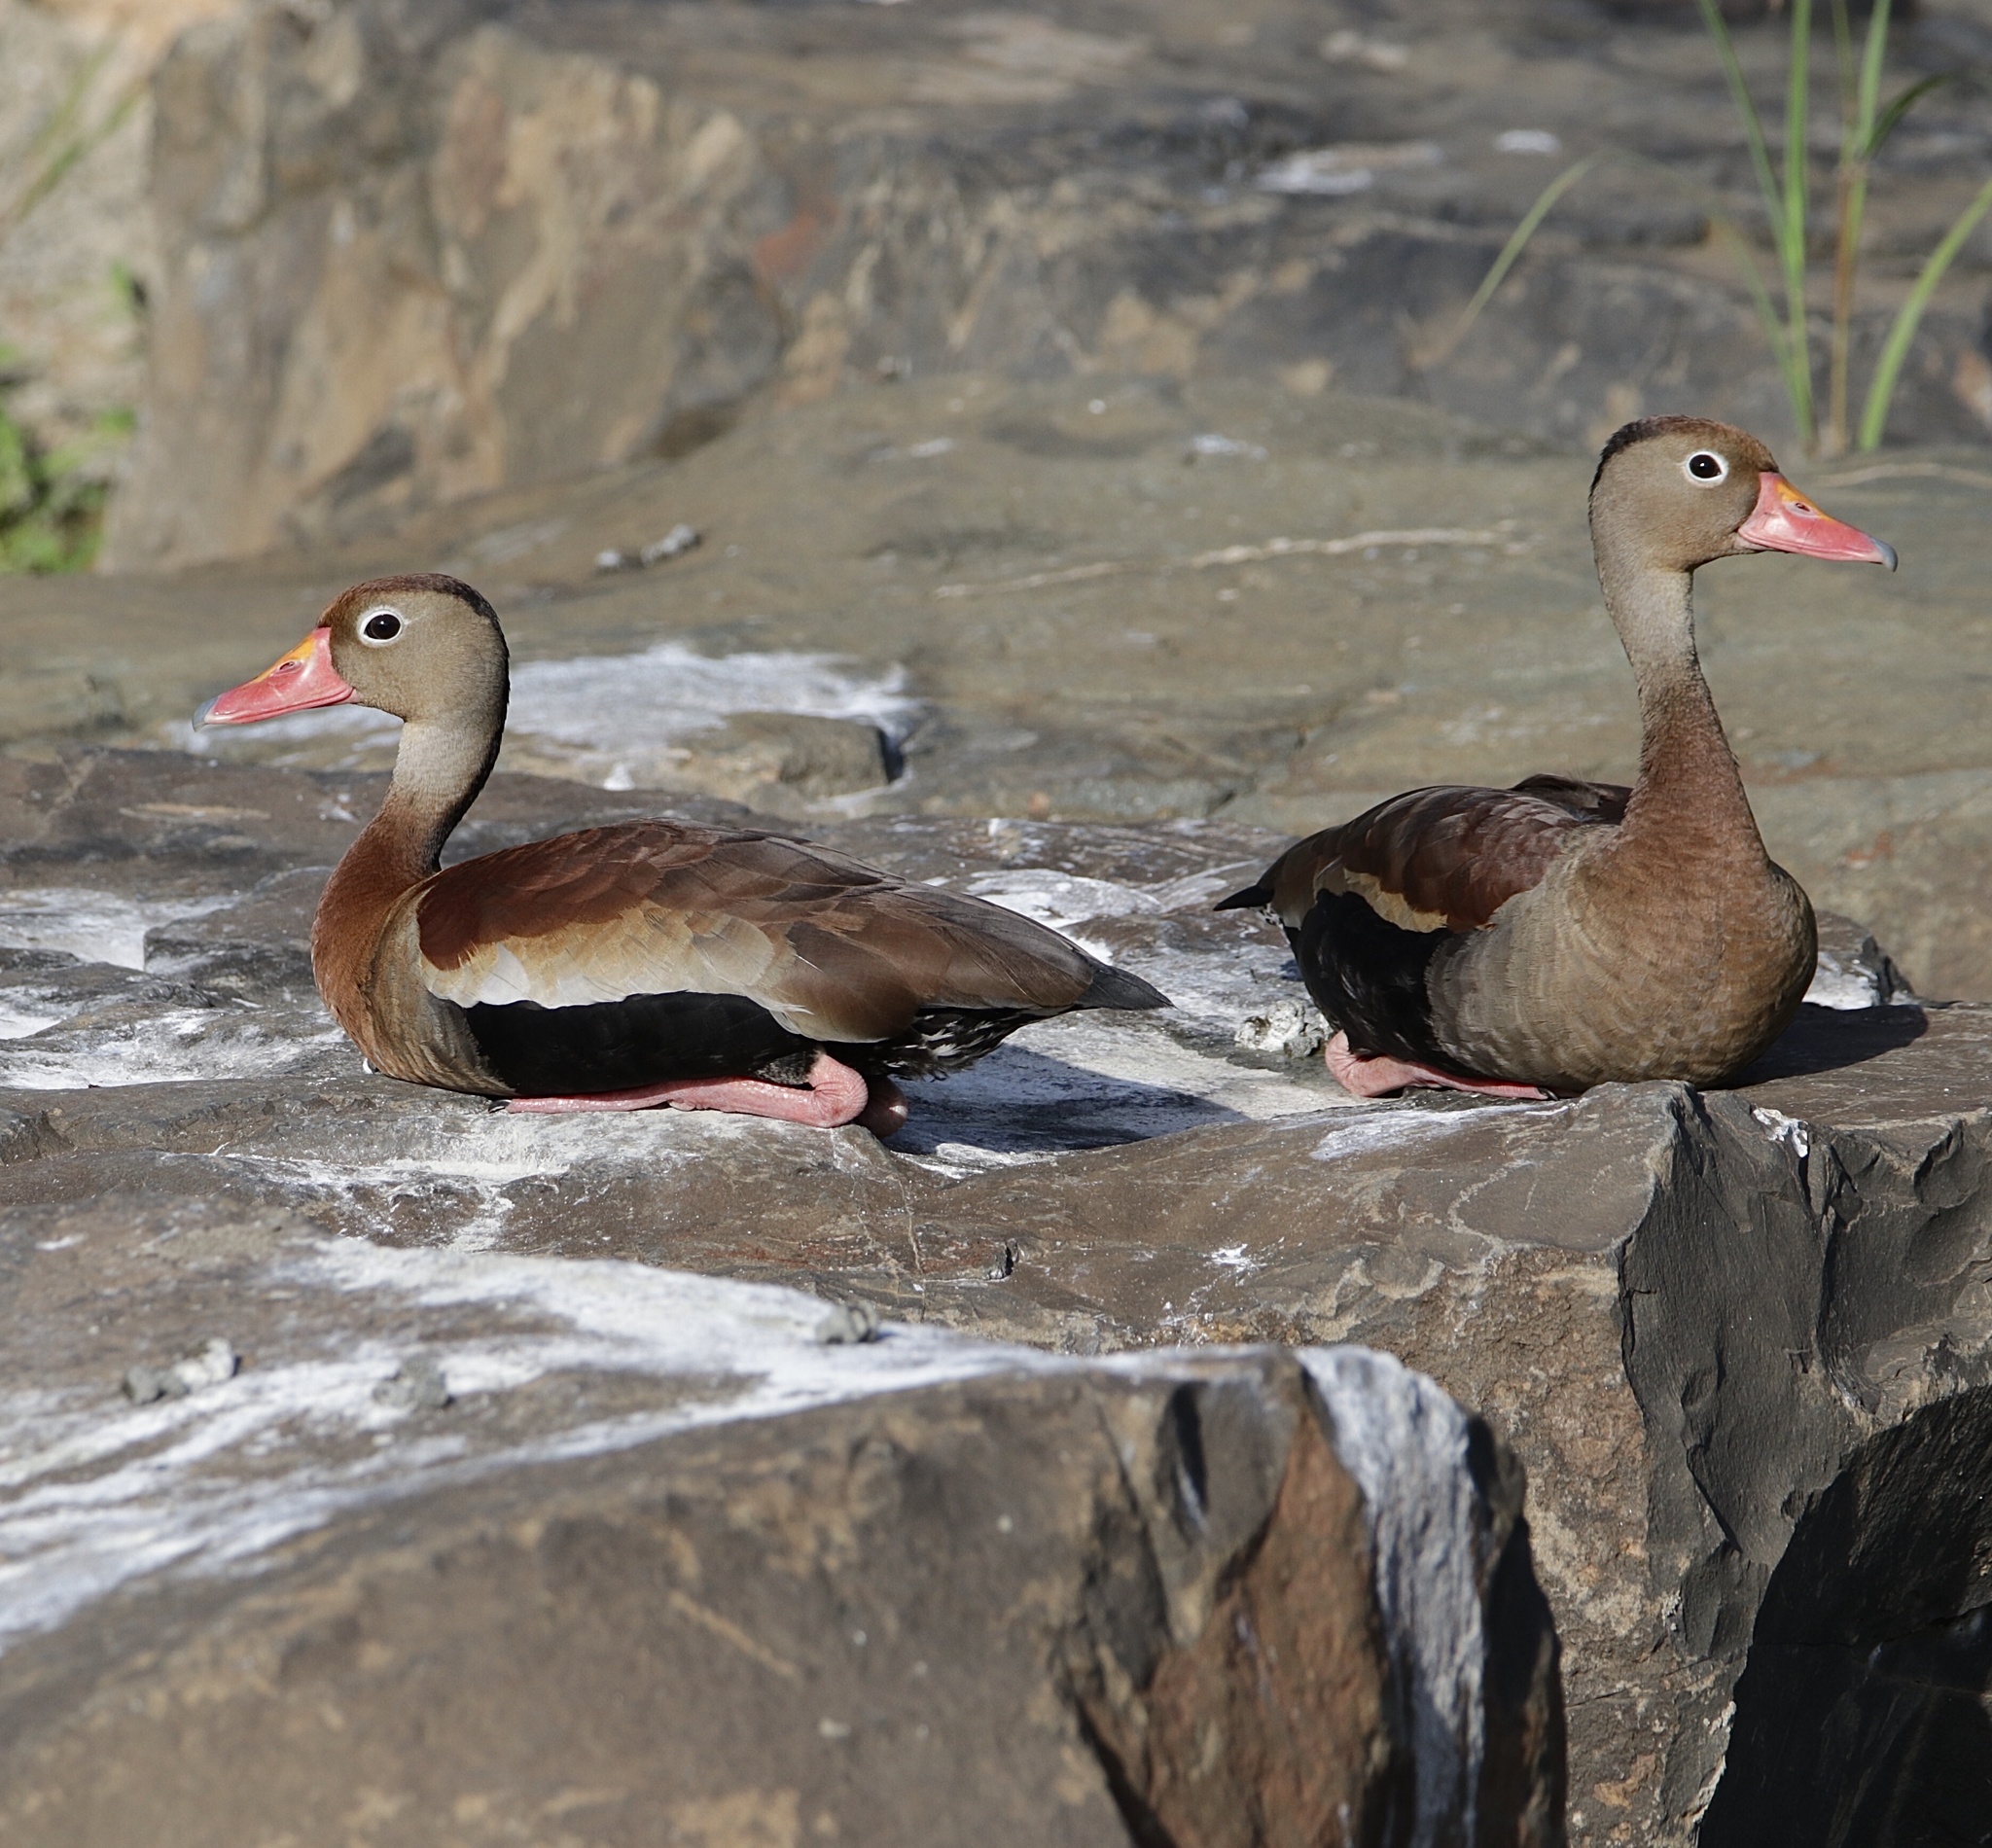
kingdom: Animalia
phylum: Chordata
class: Aves
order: Anseriformes
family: Anatidae
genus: Dendrocygna
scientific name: Dendrocygna autumnalis
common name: Black-bellied whistling duck
